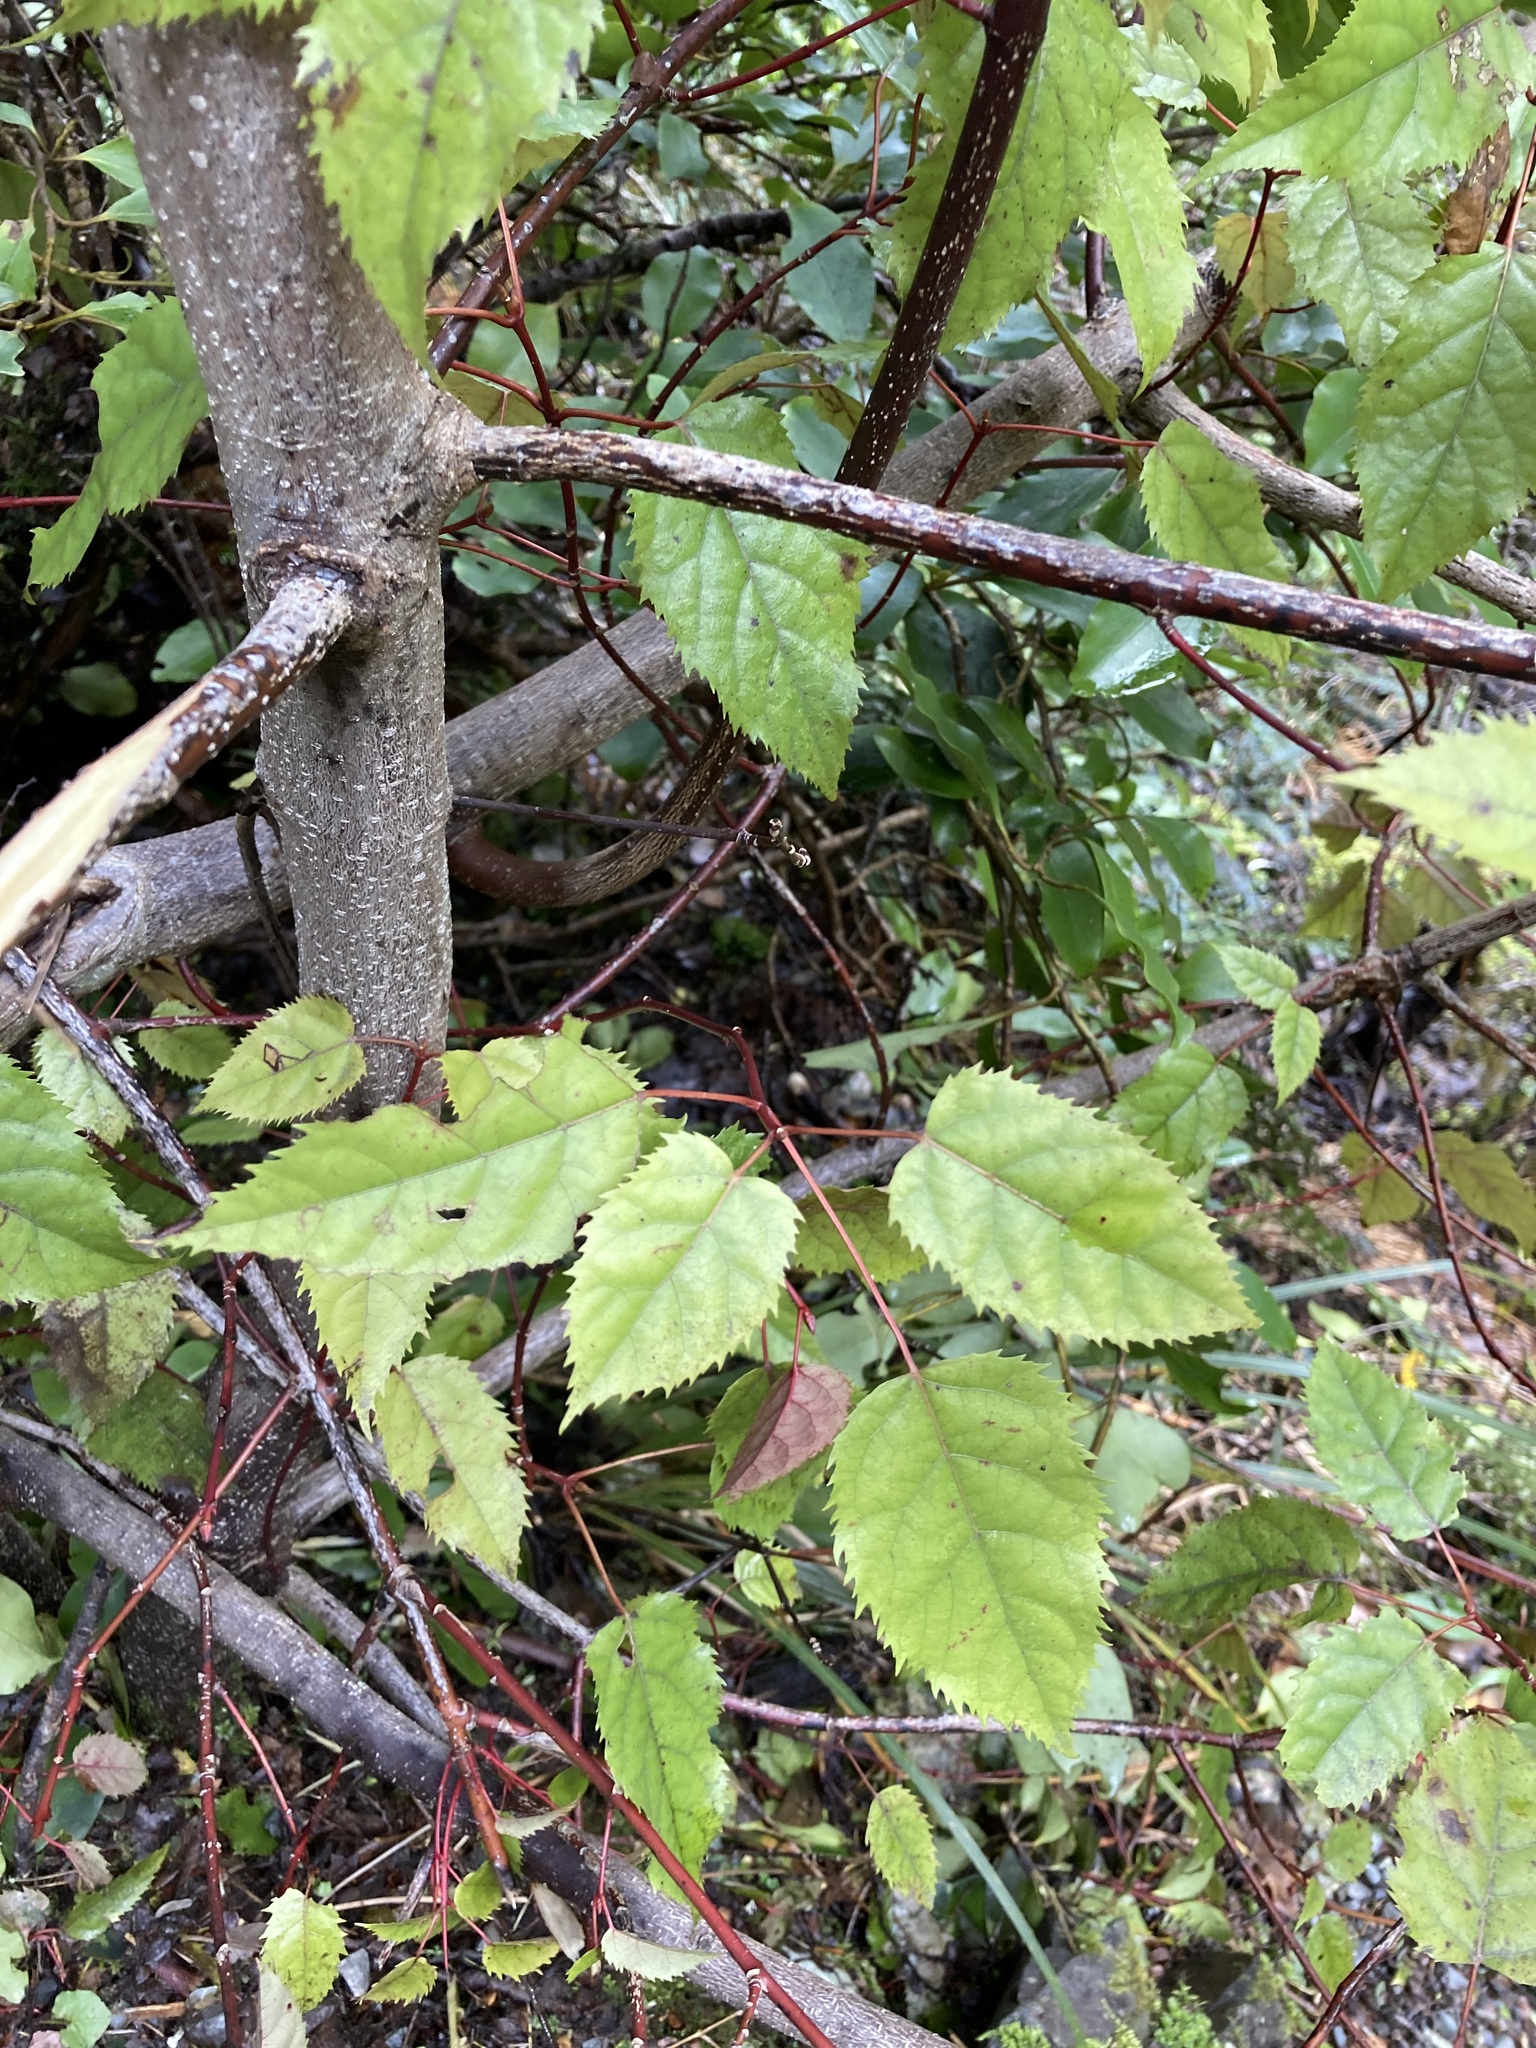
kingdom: Plantae
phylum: Tracheophyta
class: Magnoliopsida
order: Oxalidales
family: Elaeocarpaceae
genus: Aristotelia
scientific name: Aristotelia serrata
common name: New zealand wineberry
